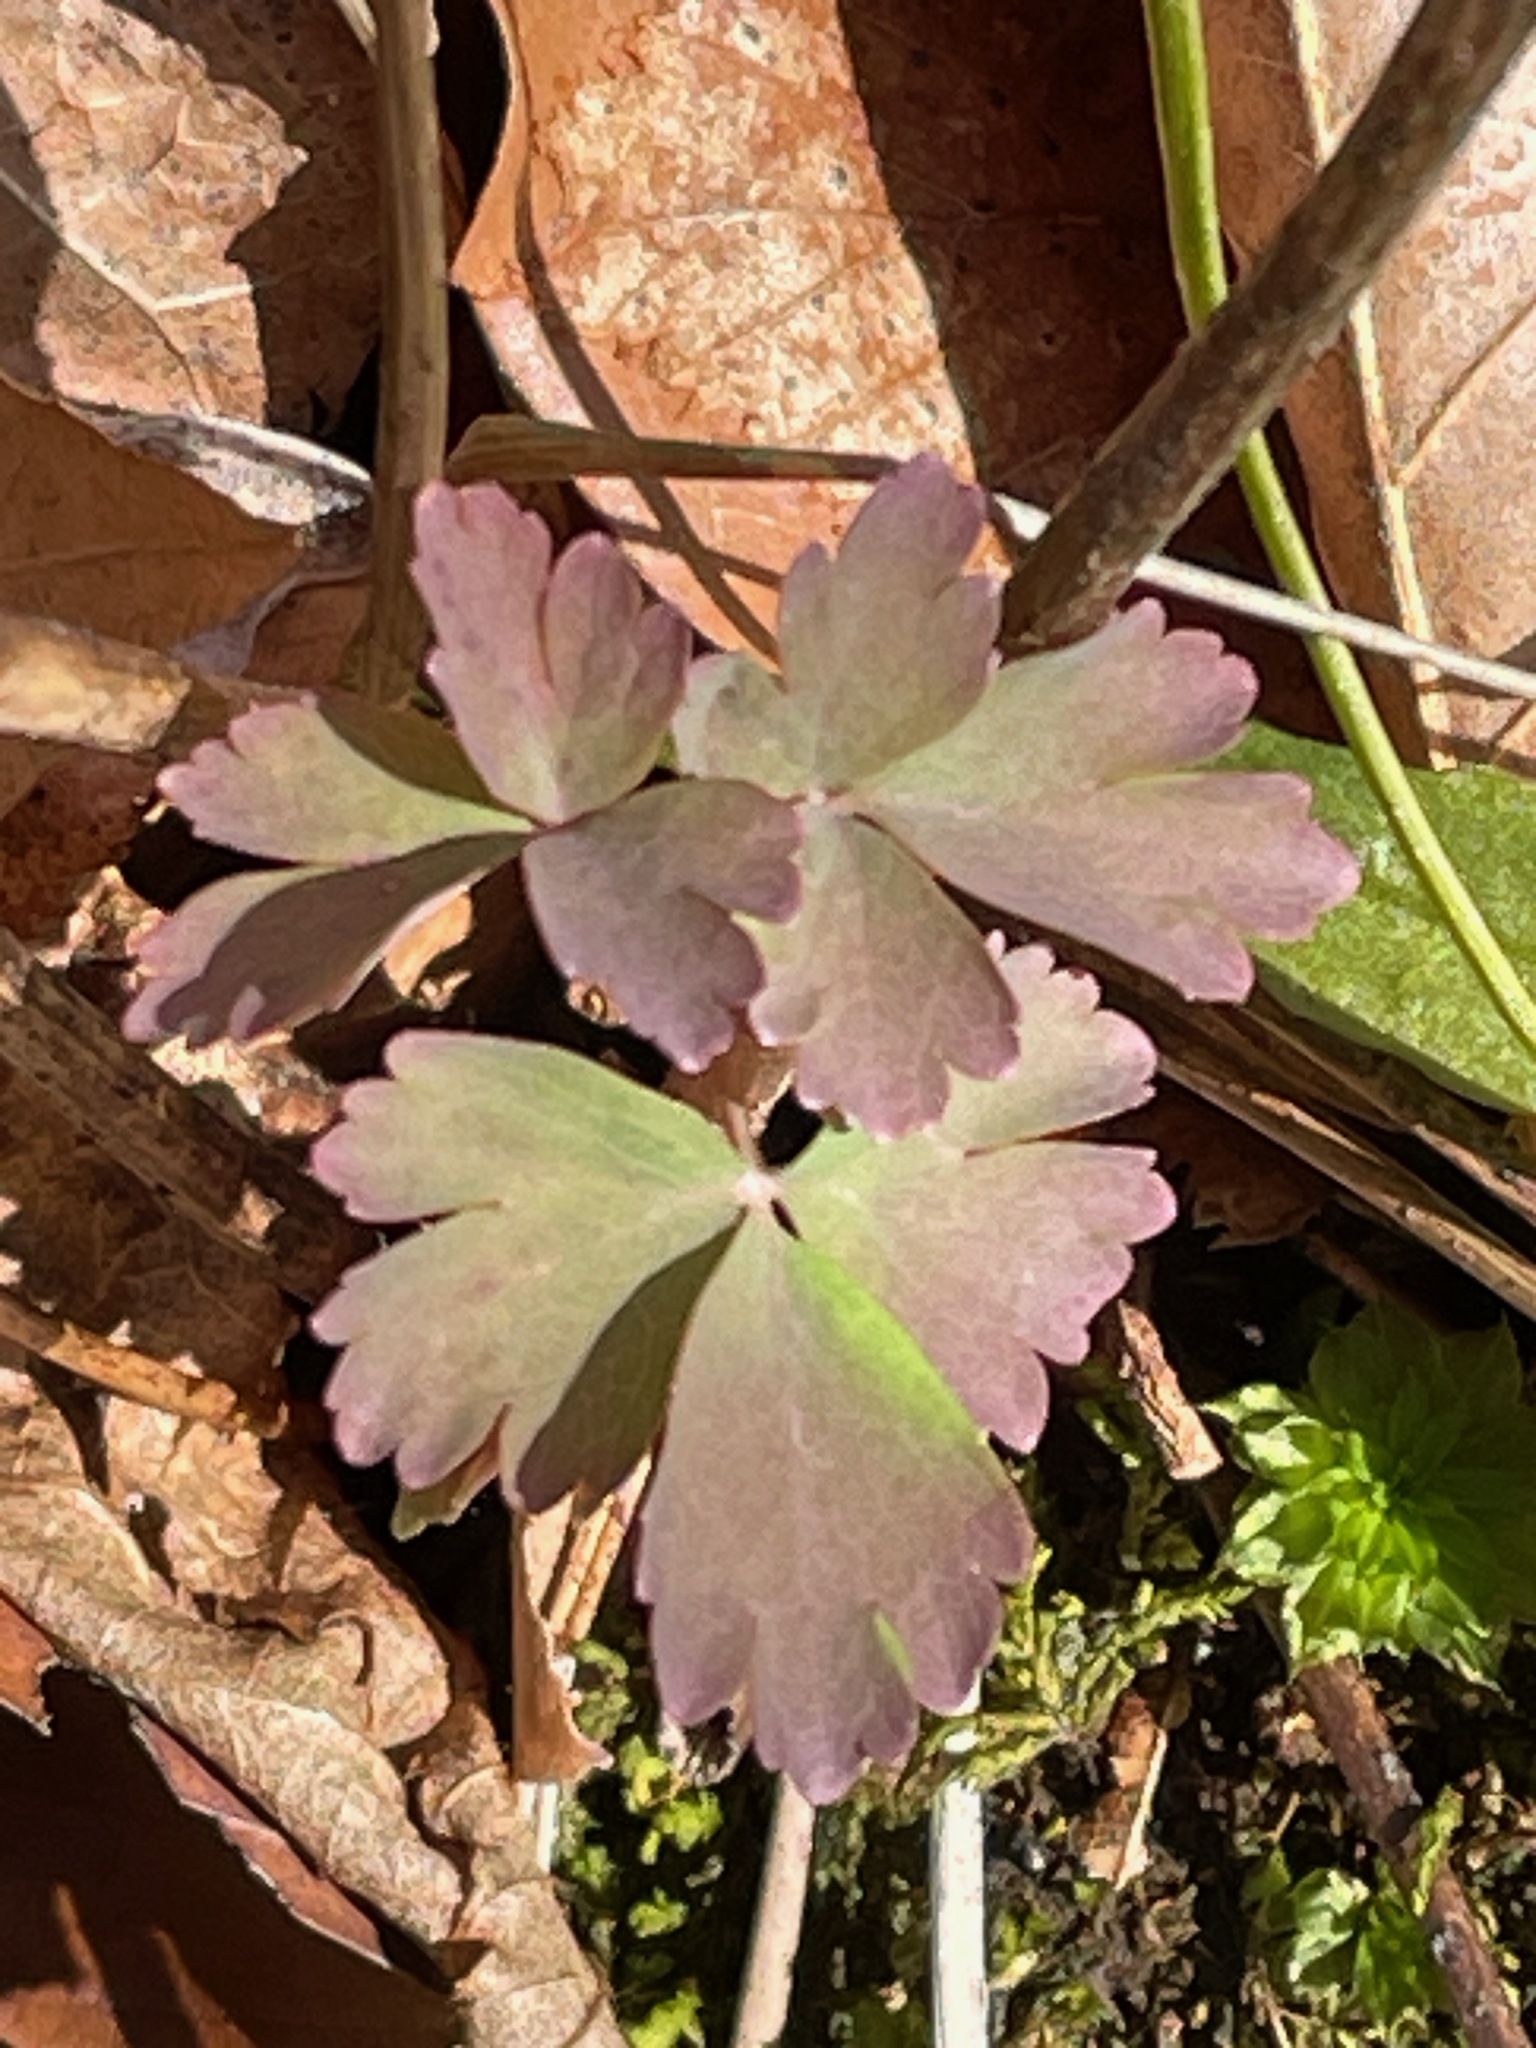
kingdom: Plantae
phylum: Tracheophyta
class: Magnoliopsida
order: Ranunculales
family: Ranunculaceae
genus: Aquilegia
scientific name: Aquilegia canadensis
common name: American columbine
